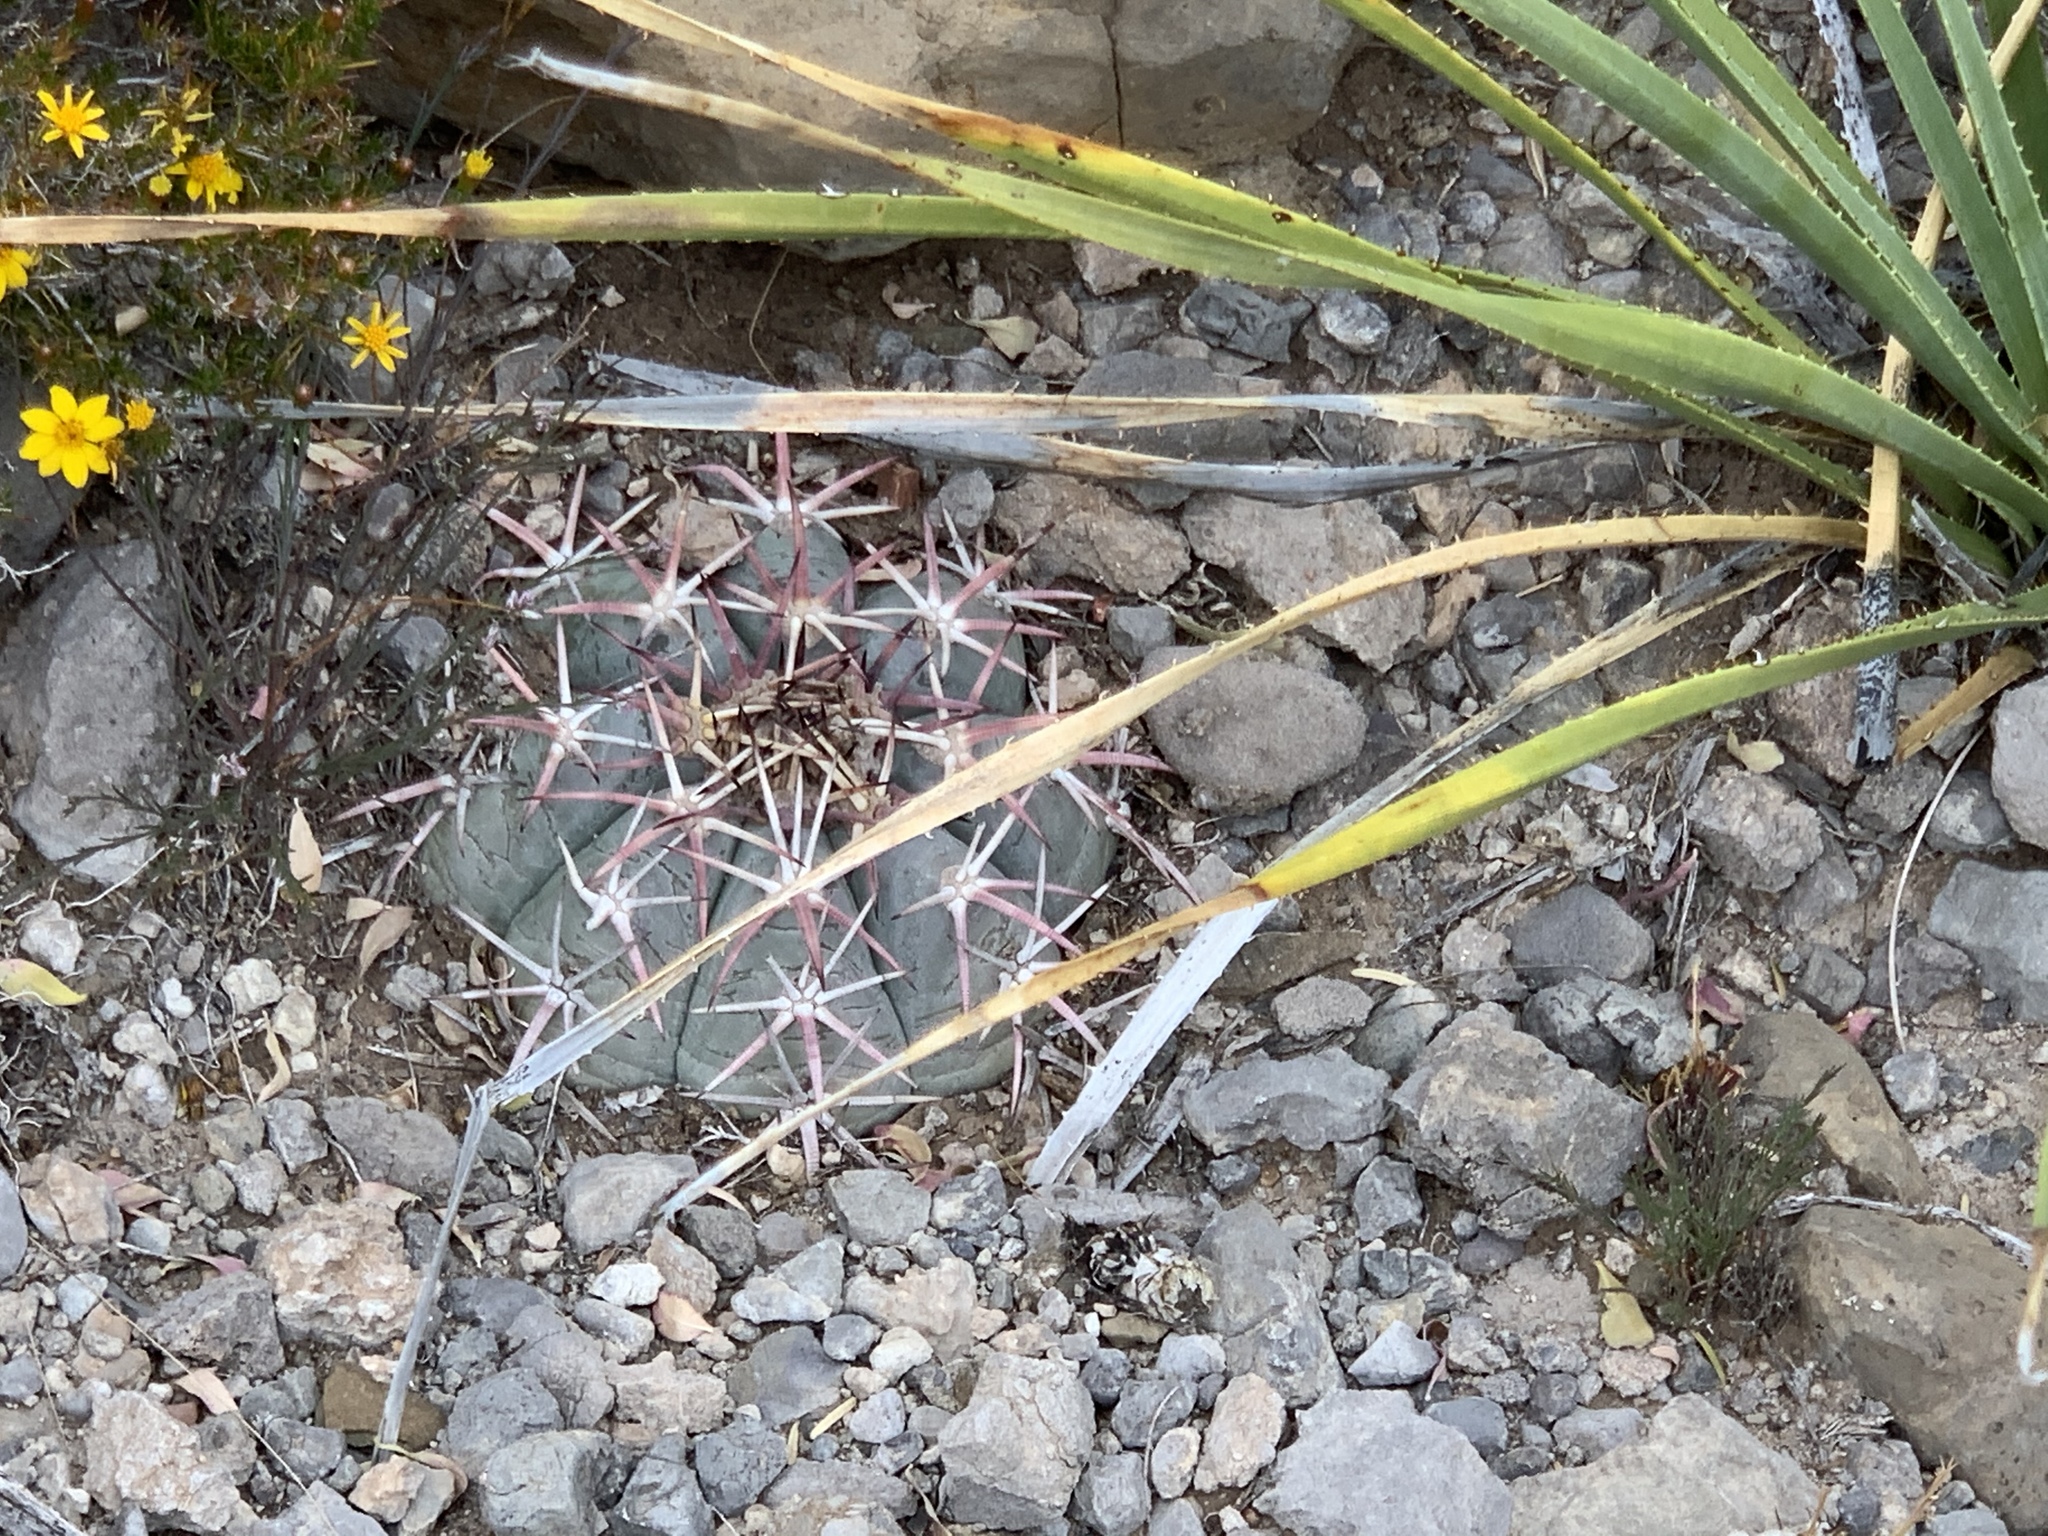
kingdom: Plantae
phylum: Tracheophyta
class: Magnoliopsida
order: Caryophyllales
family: Cactaceae
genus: Echinocactus
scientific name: Echinocactus horizonthalonius
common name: Devilshead
